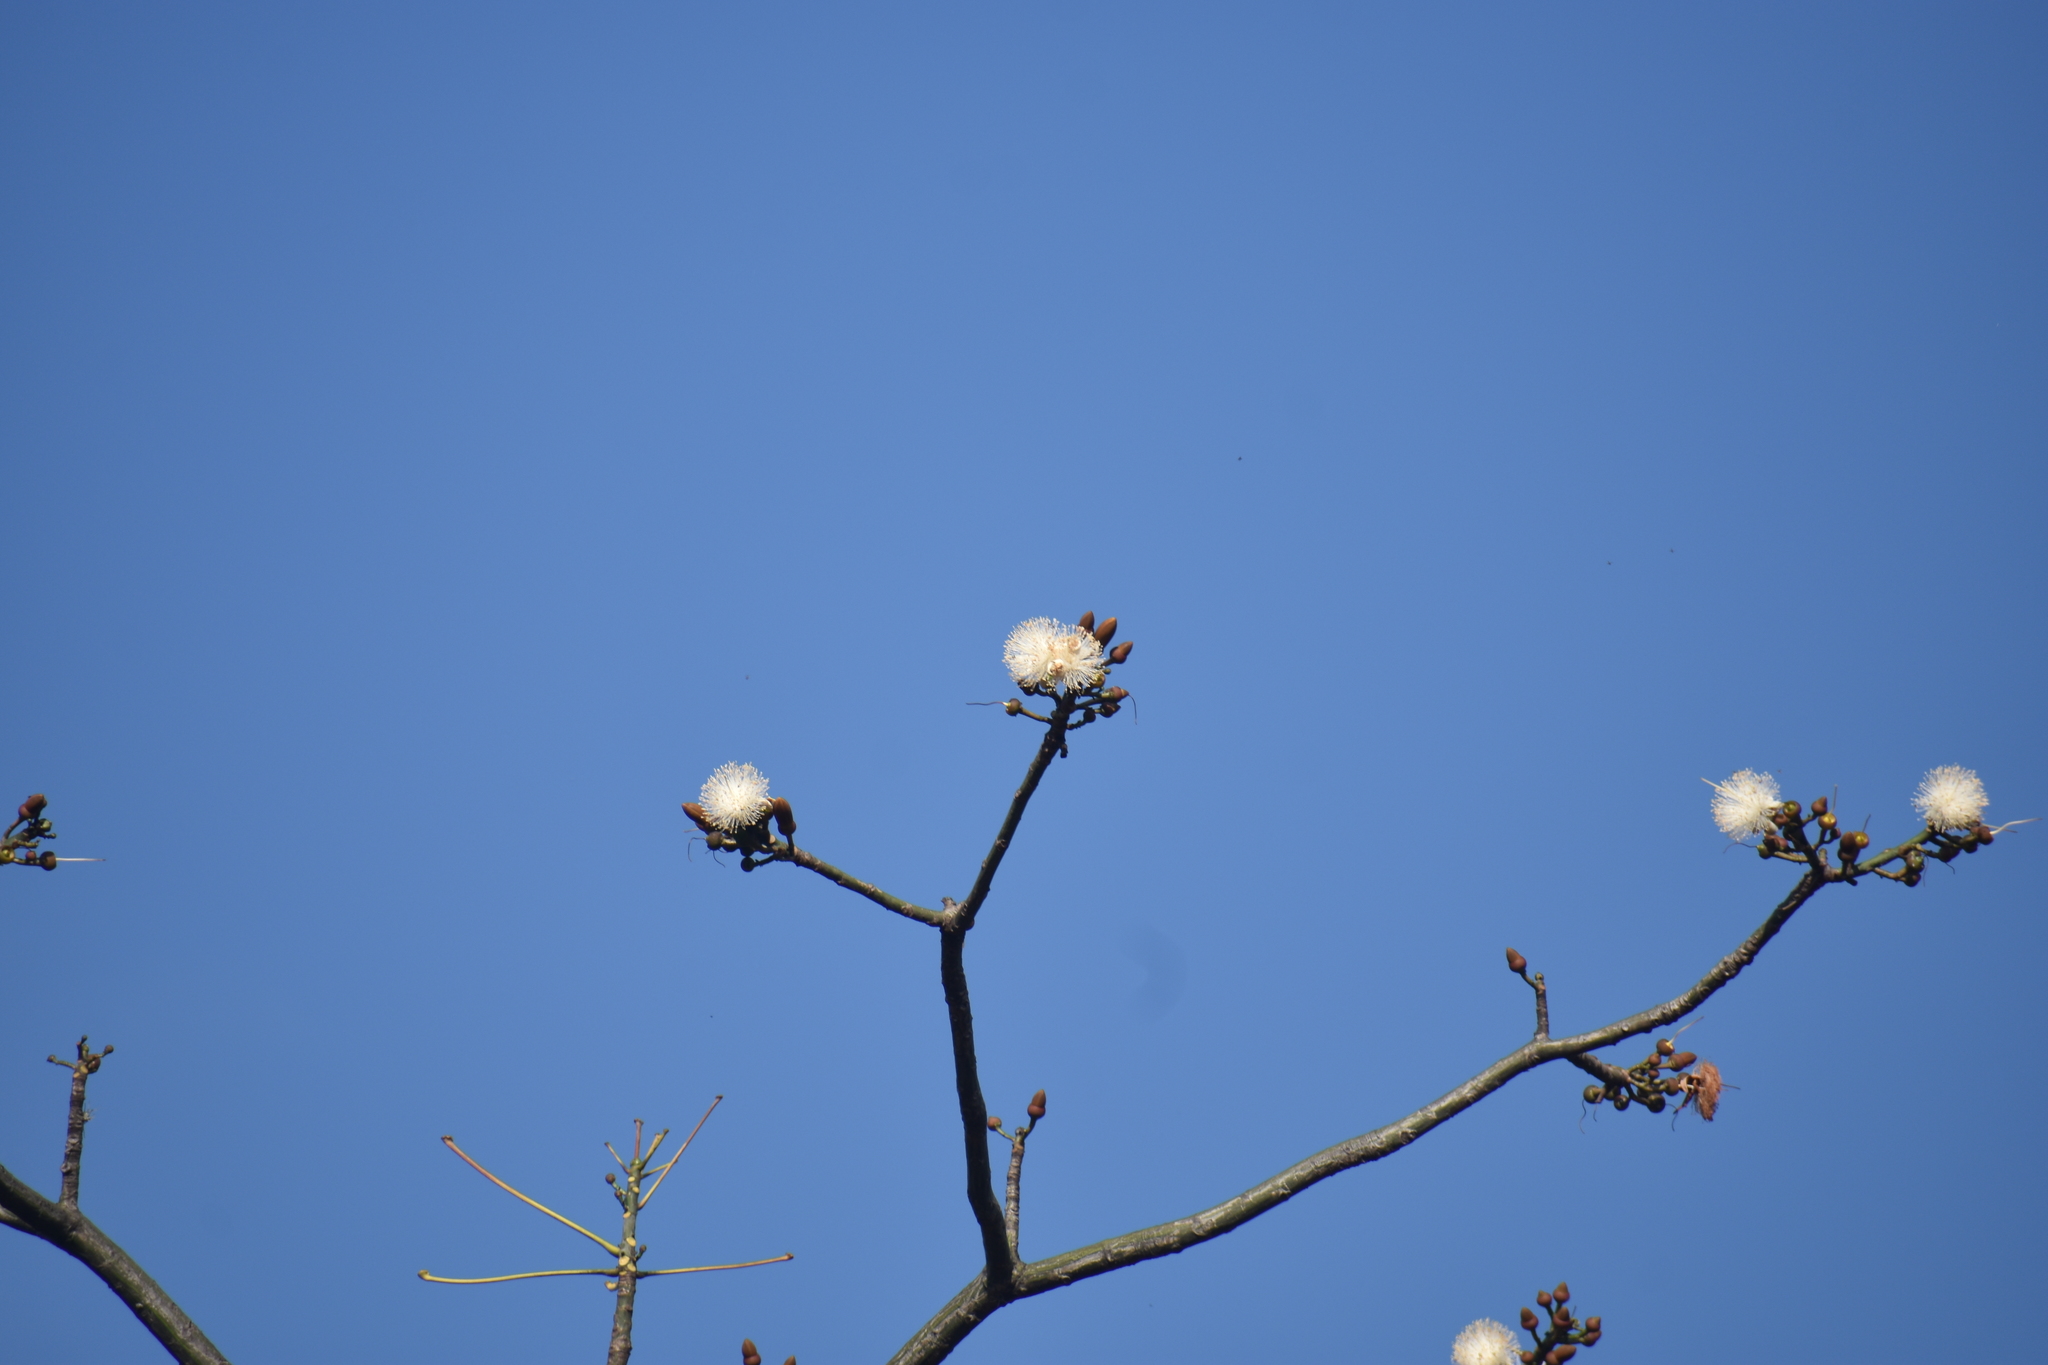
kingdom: Plantae
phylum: Tracheophyta
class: Magnoliopsida
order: Malvales
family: Malvaceae
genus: Pseudobombax
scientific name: Pseudobombax septenatum
